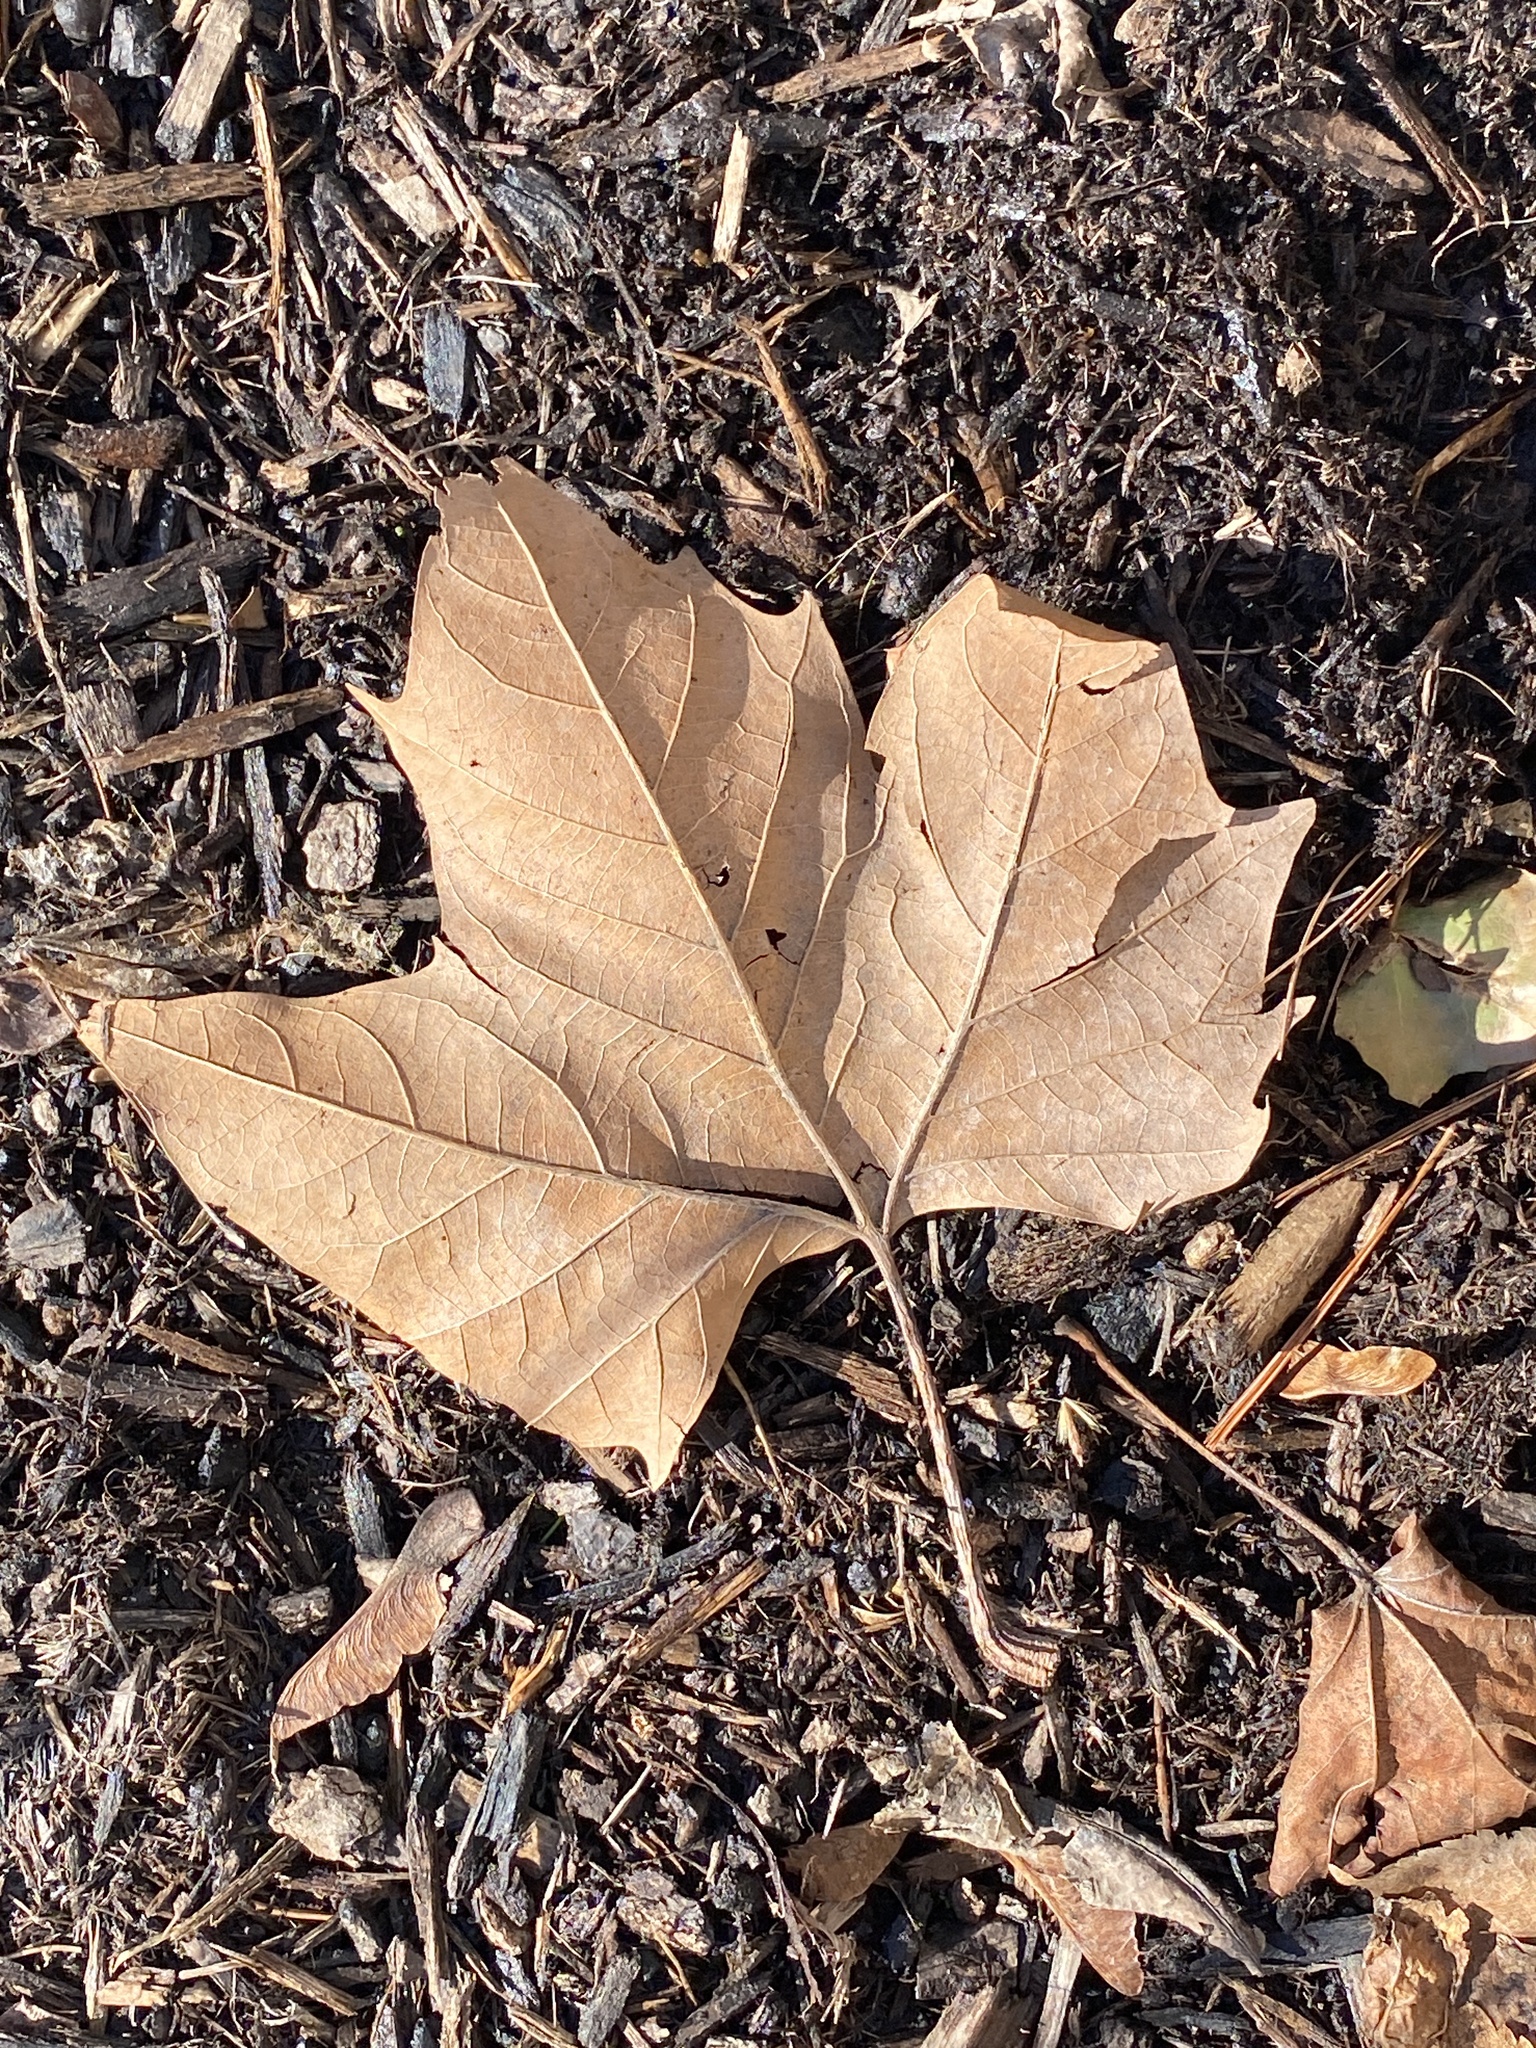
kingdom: Plantae
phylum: Tracheophyta
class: Magnoliopsida
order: Proteales
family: Platanaceae
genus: Platanus
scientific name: Platanus occidentalis
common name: American sycamore
